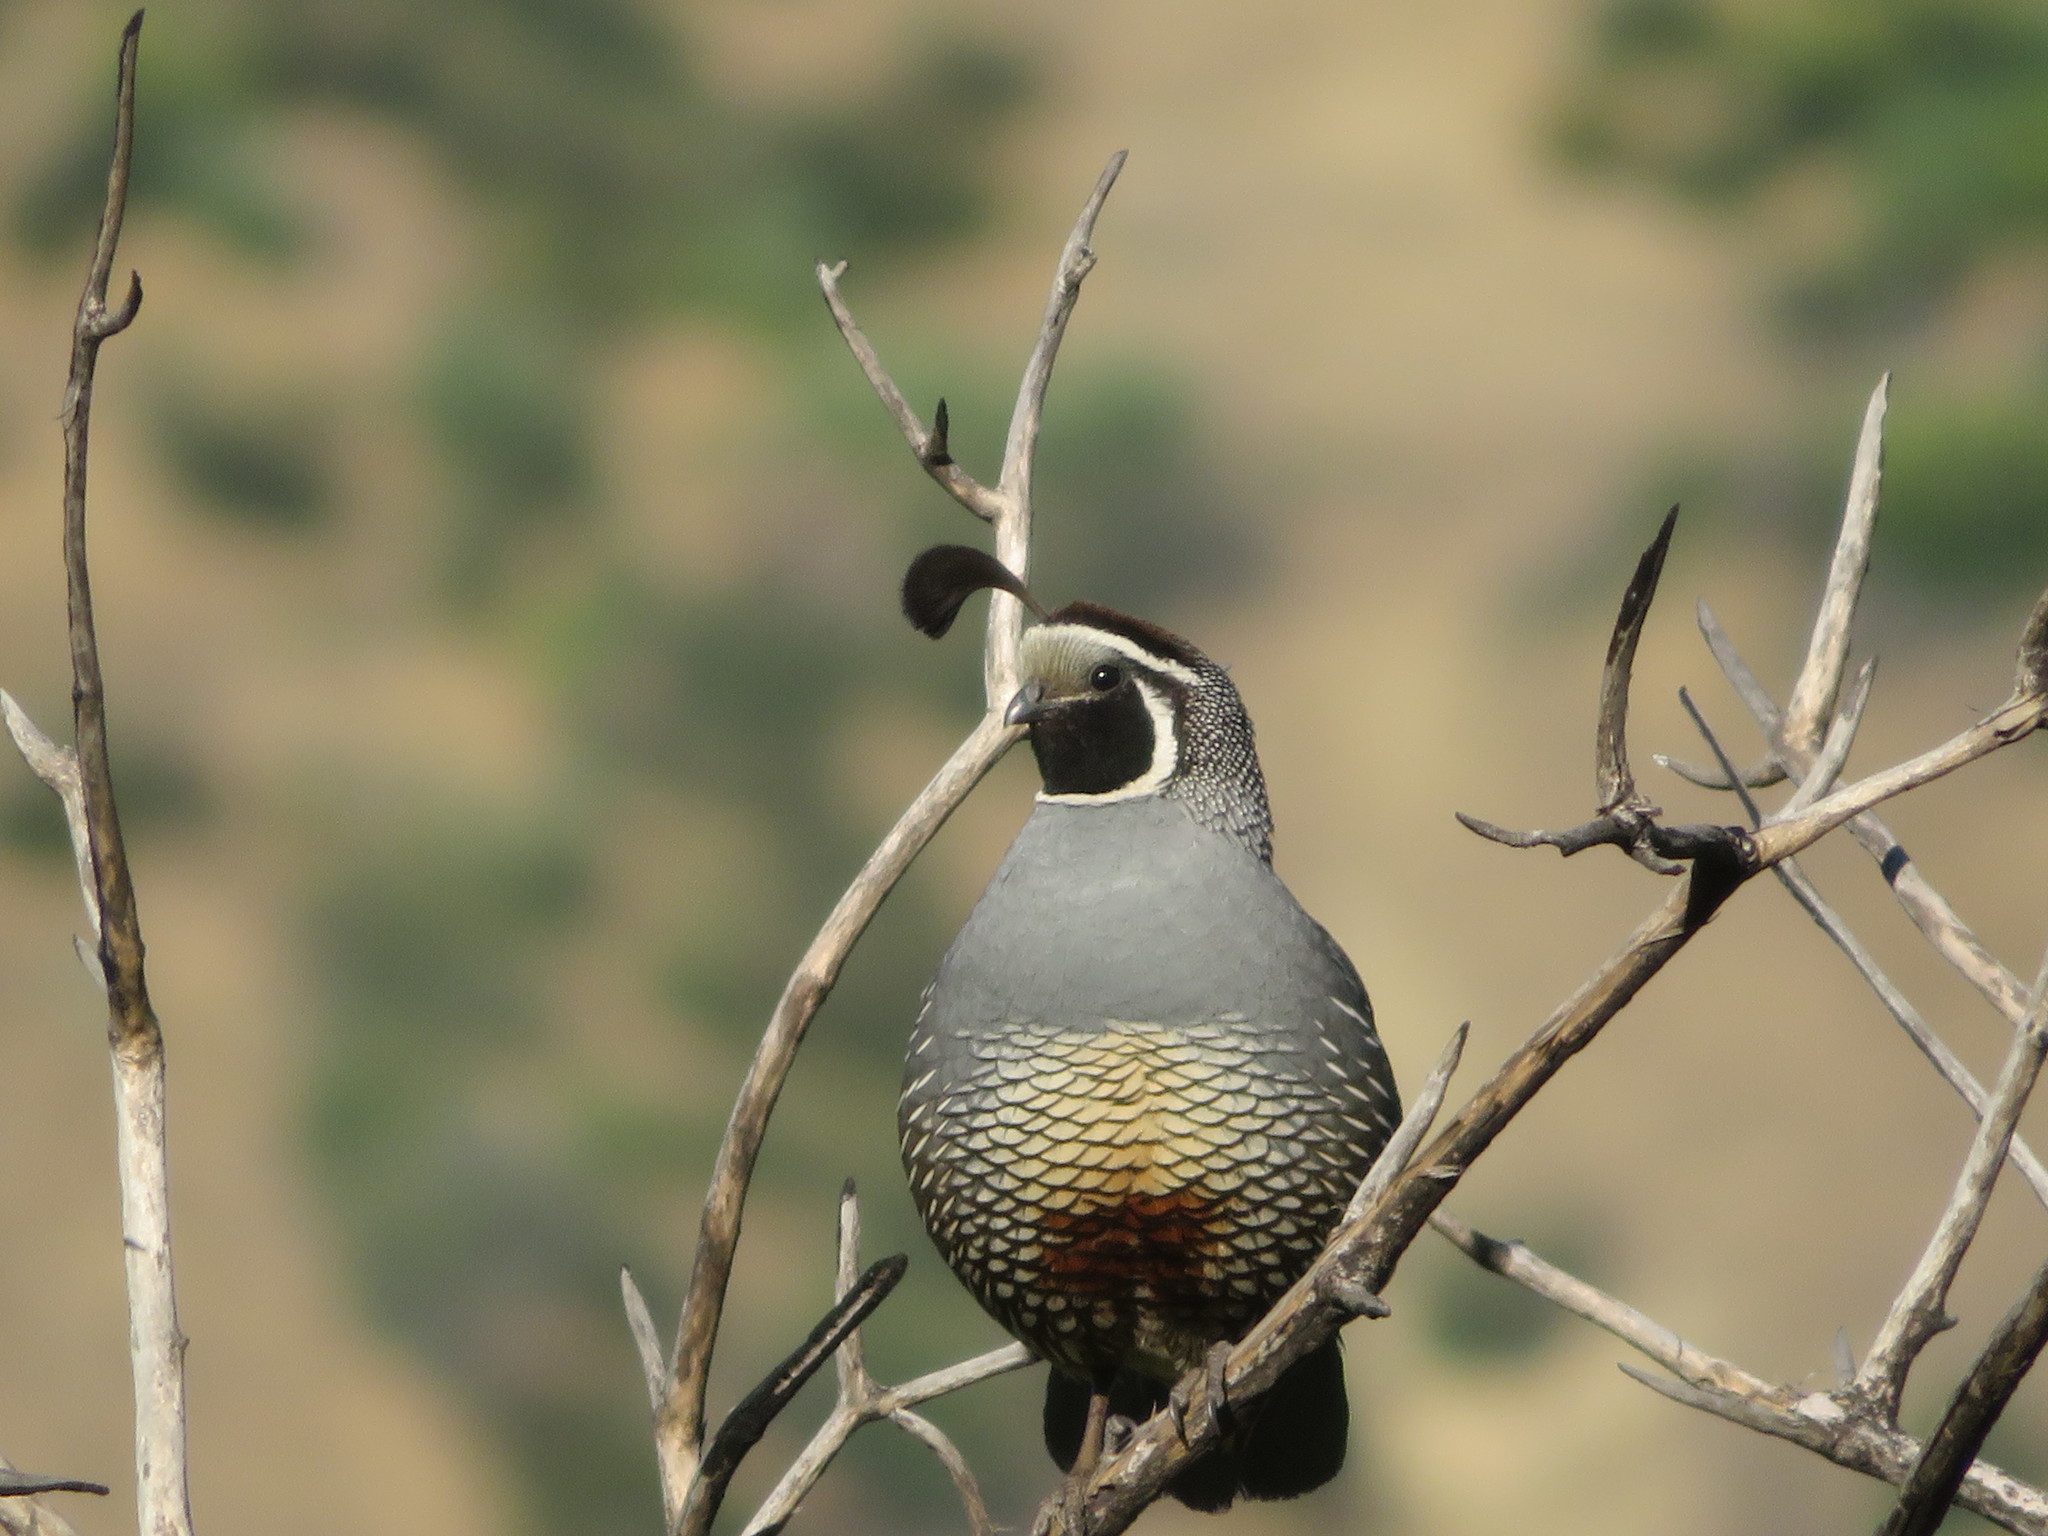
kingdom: Animalia
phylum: Chordata
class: Aves
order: Galliformes
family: Odontophoridae
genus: Callipepla
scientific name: Callipepla californica
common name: California quail
